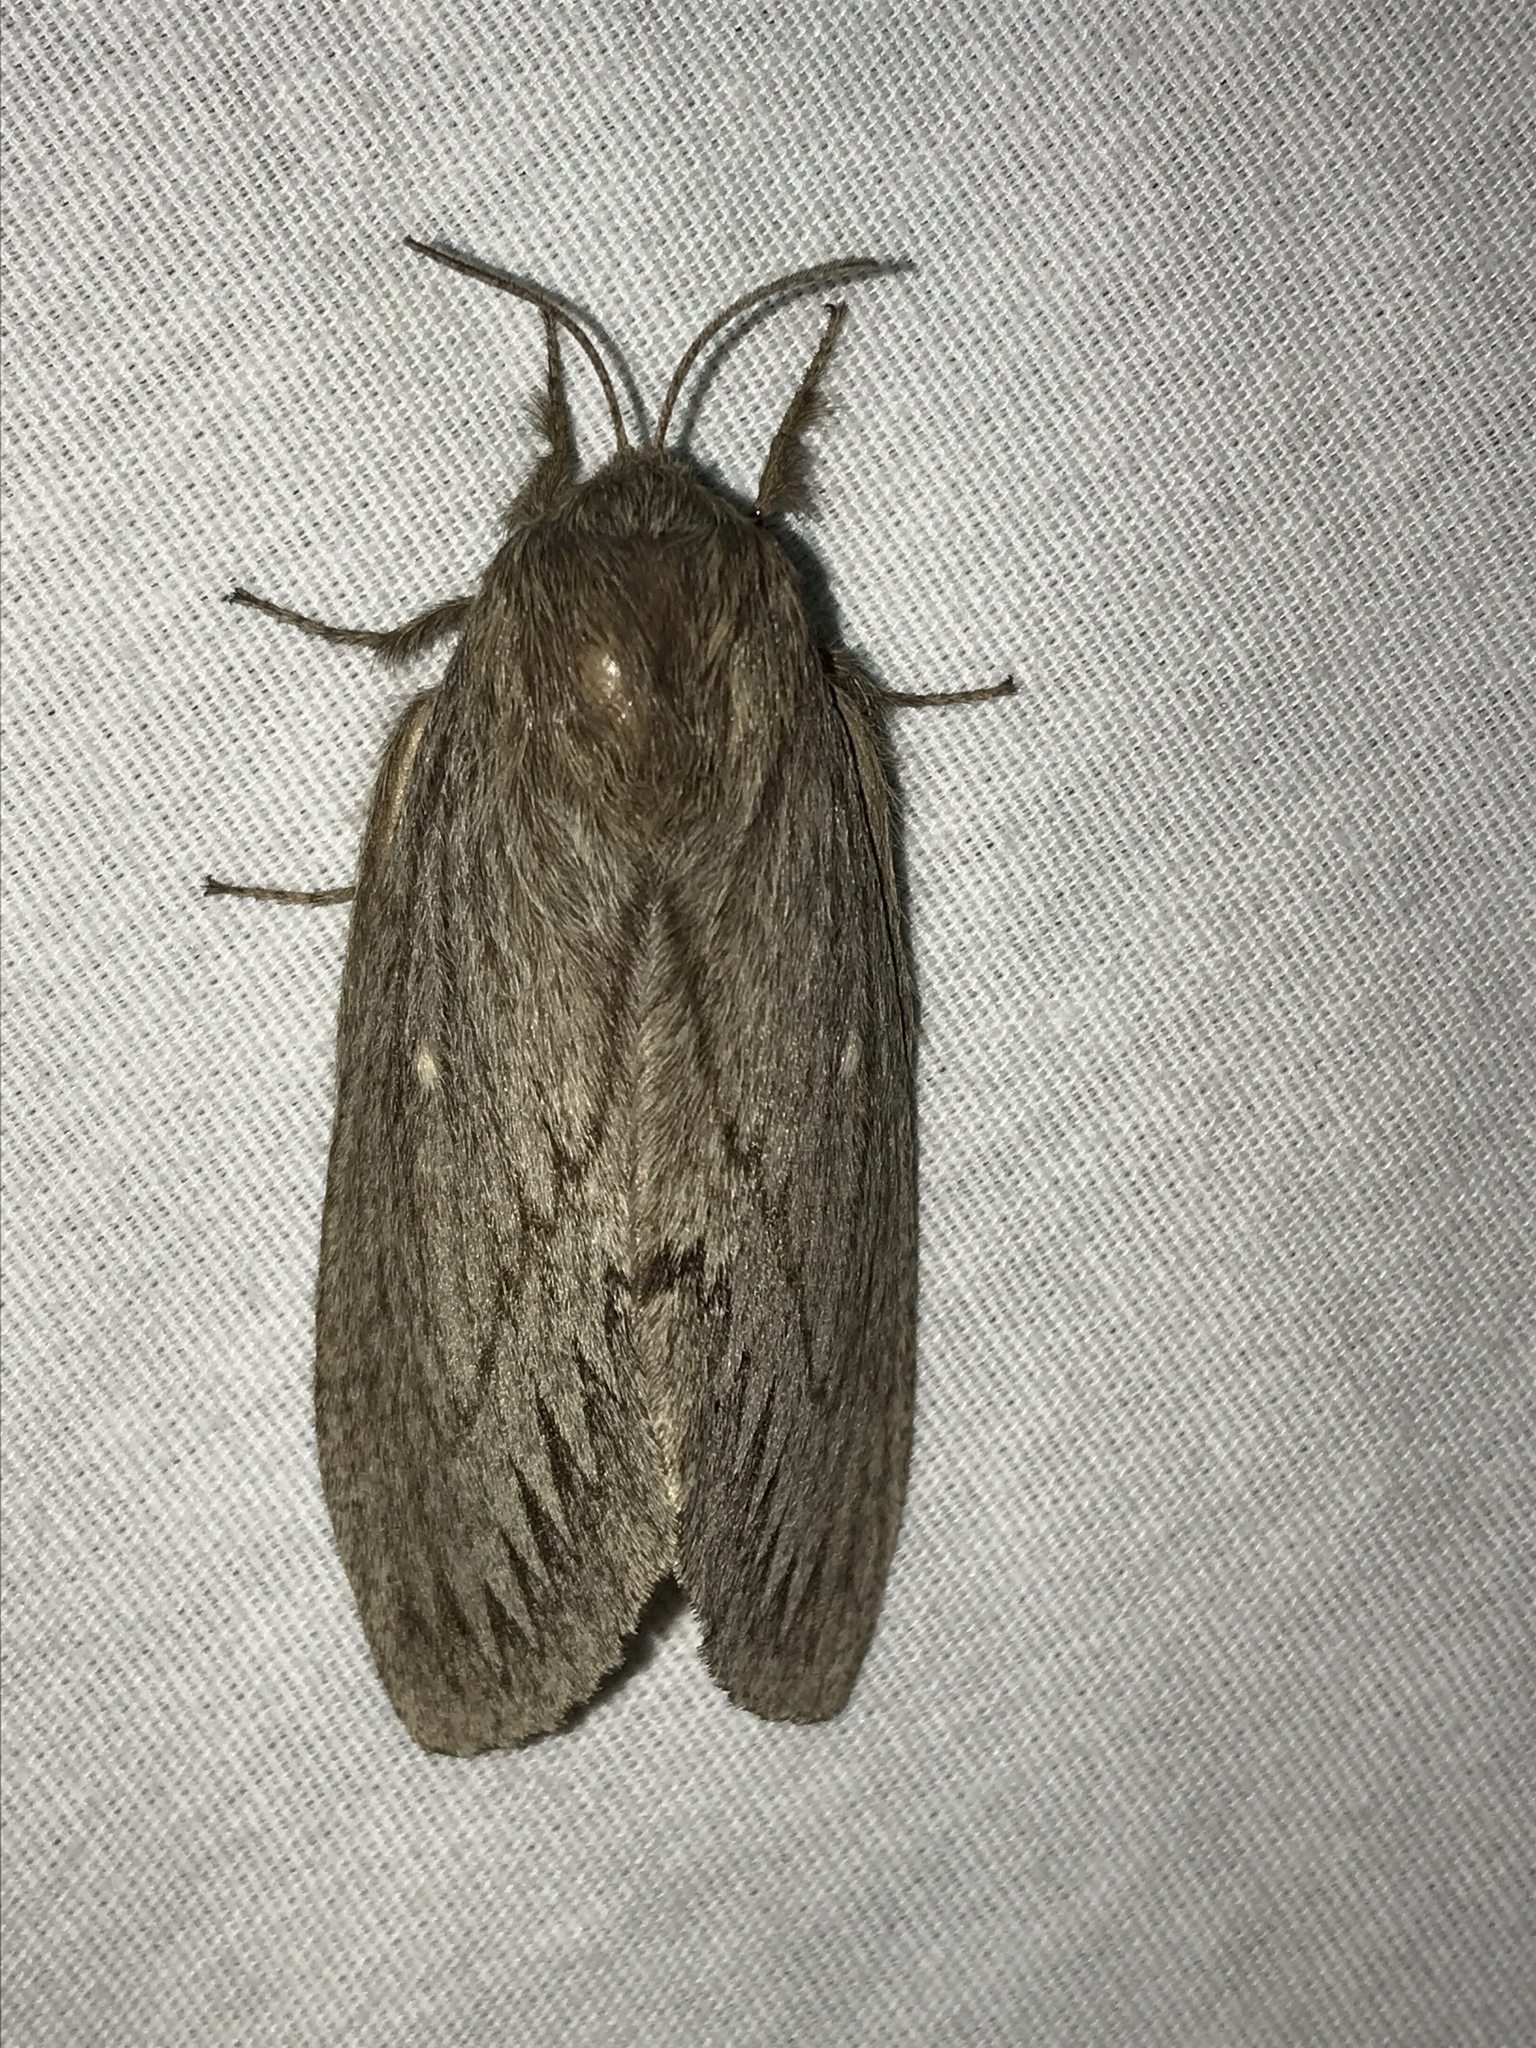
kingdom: Animalia
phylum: Arthropoda
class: Insecta
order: Lepidoptera
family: Lasiocampidae
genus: Gloveria
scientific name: Gloveria arizonensis
